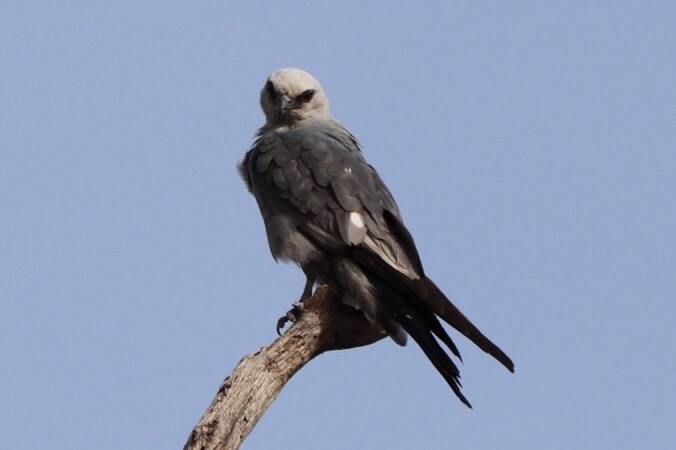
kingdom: Animalia
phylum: Chordata
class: Aves
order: Accipitriformes
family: Accipitridae
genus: Ictinia
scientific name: Ictinia mississippiensis
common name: Mississippi kite
